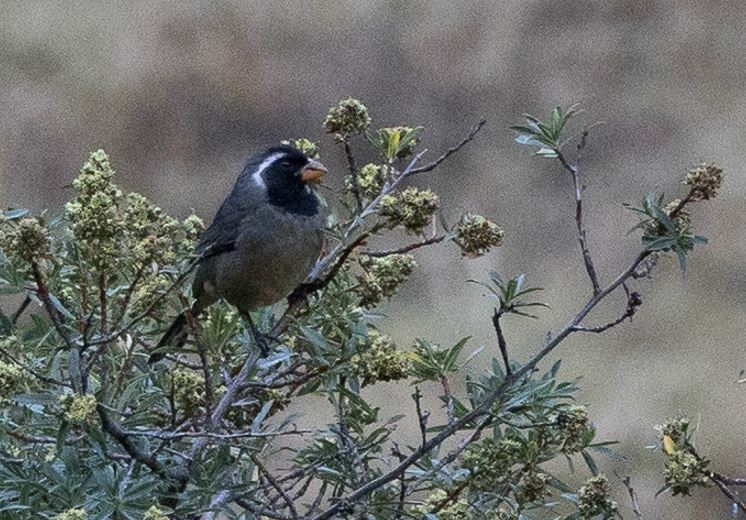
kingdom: Animalia
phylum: Chordata
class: Aves
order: Passeriformes
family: Thraupidae
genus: Saltator
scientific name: Saltator aurantiirostris
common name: Golden-billed saltator
